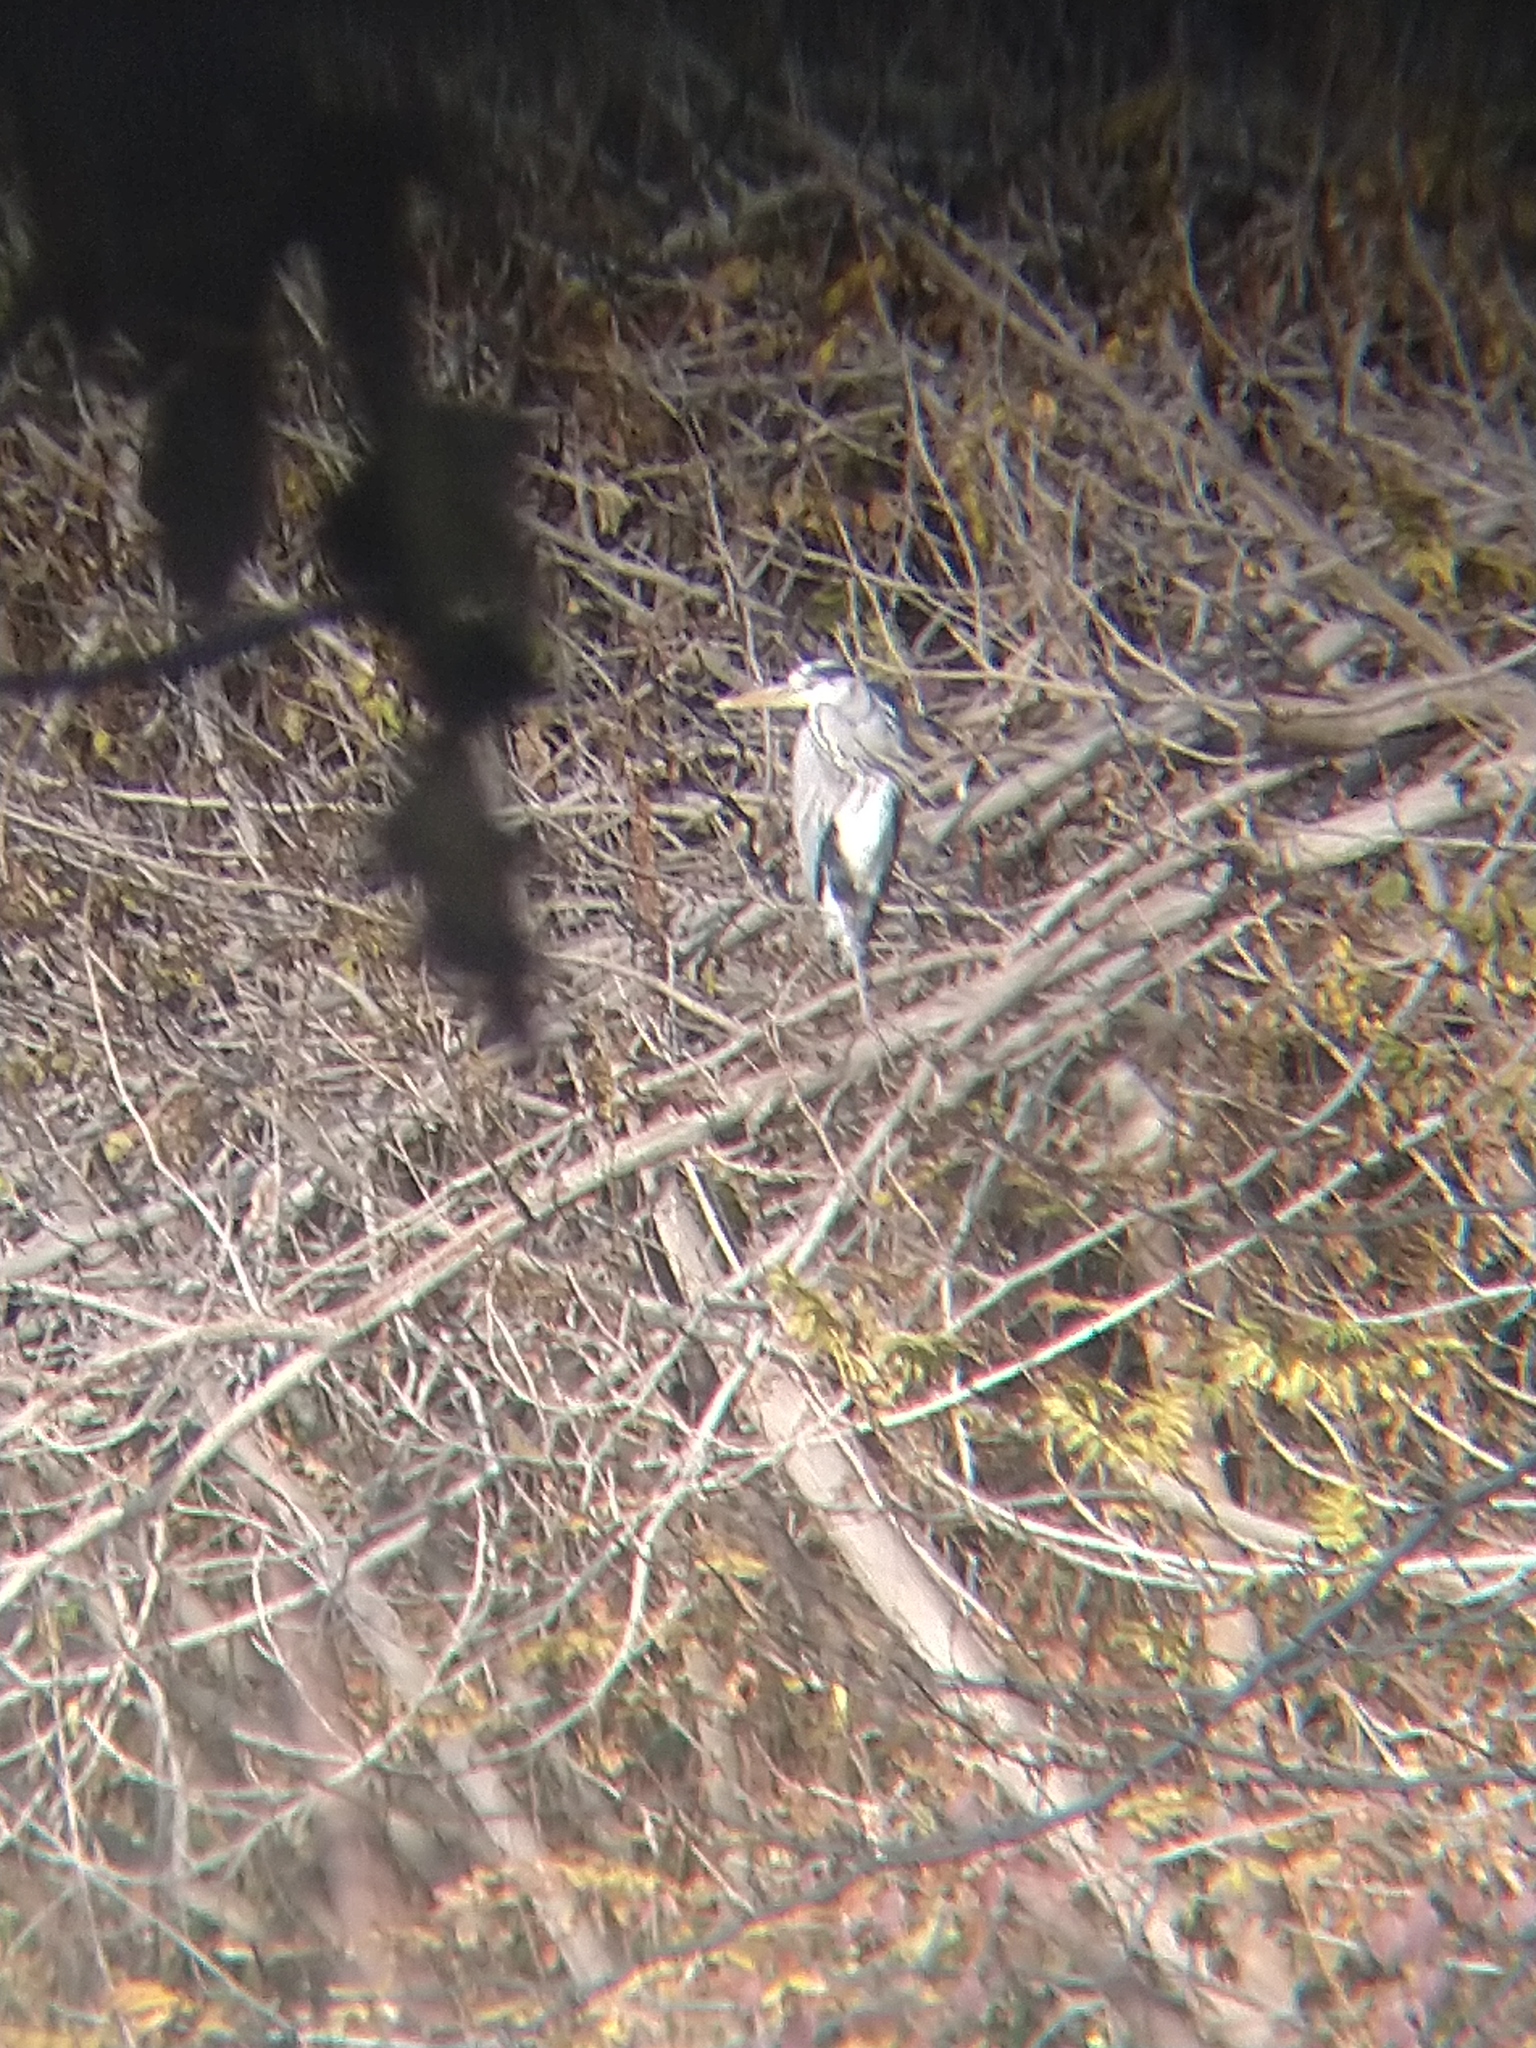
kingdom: Animalia
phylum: Chordata
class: Aves
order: Pelecaniformes
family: Ardeidae
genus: Ardea
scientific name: Ardea cinerea
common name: Grey heron
